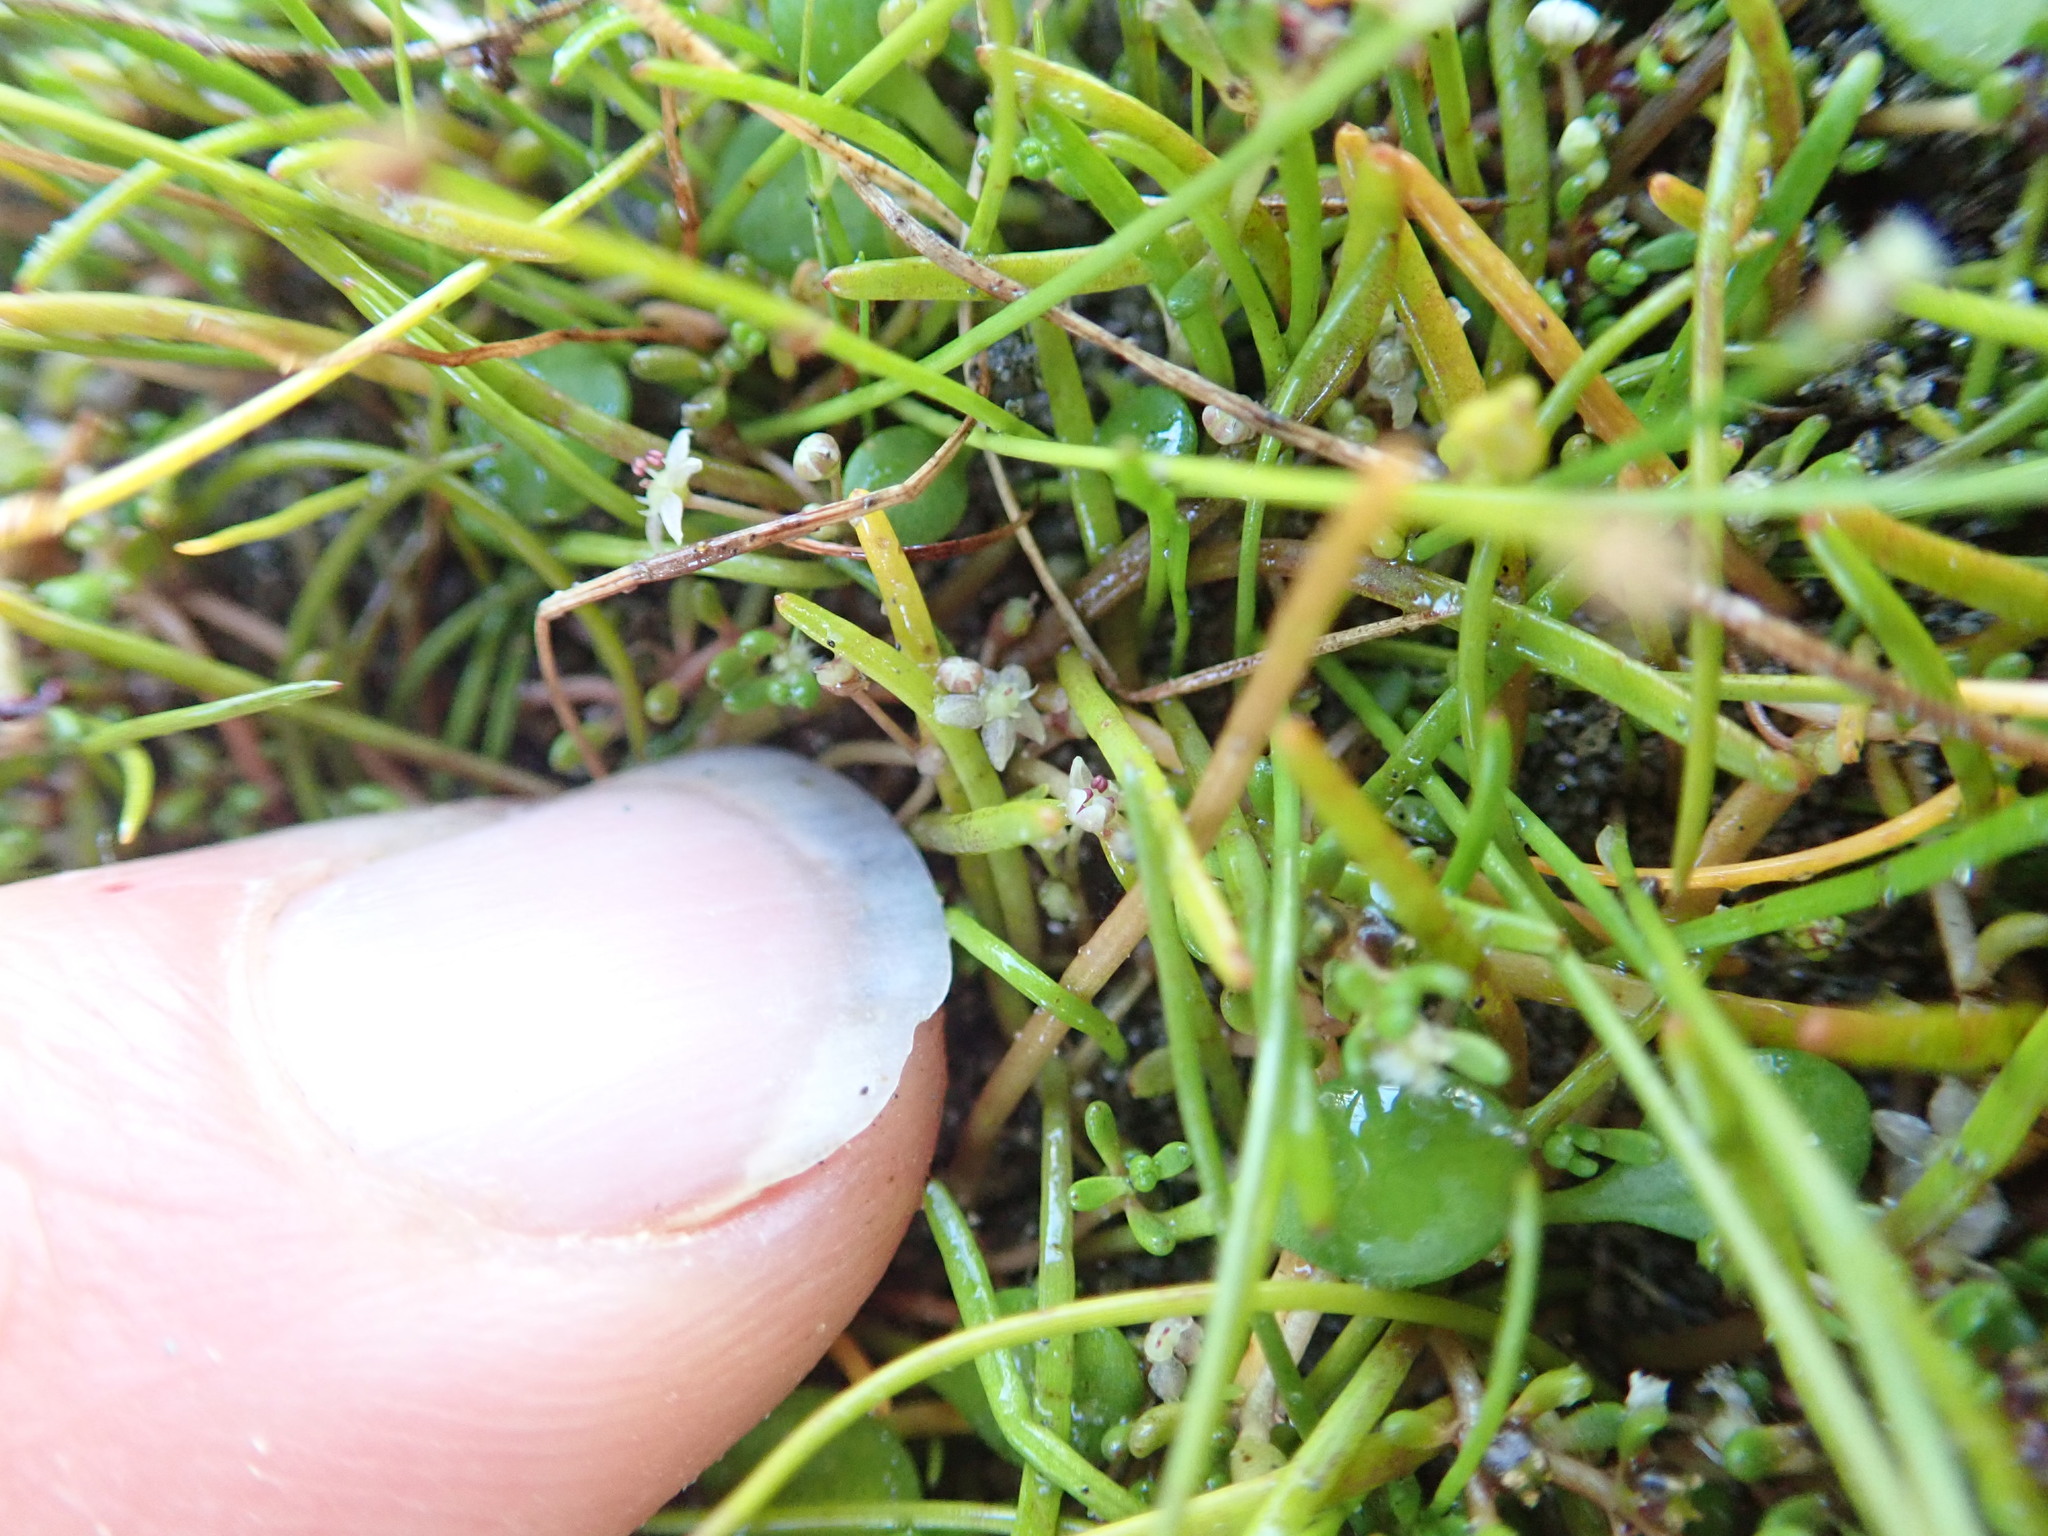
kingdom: Plantae
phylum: Tracheophyta
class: Magnoliopsida
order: Apiales
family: Apiaceae
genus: Lilaeopsis
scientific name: Lilaeopsis novae-zelandiae
